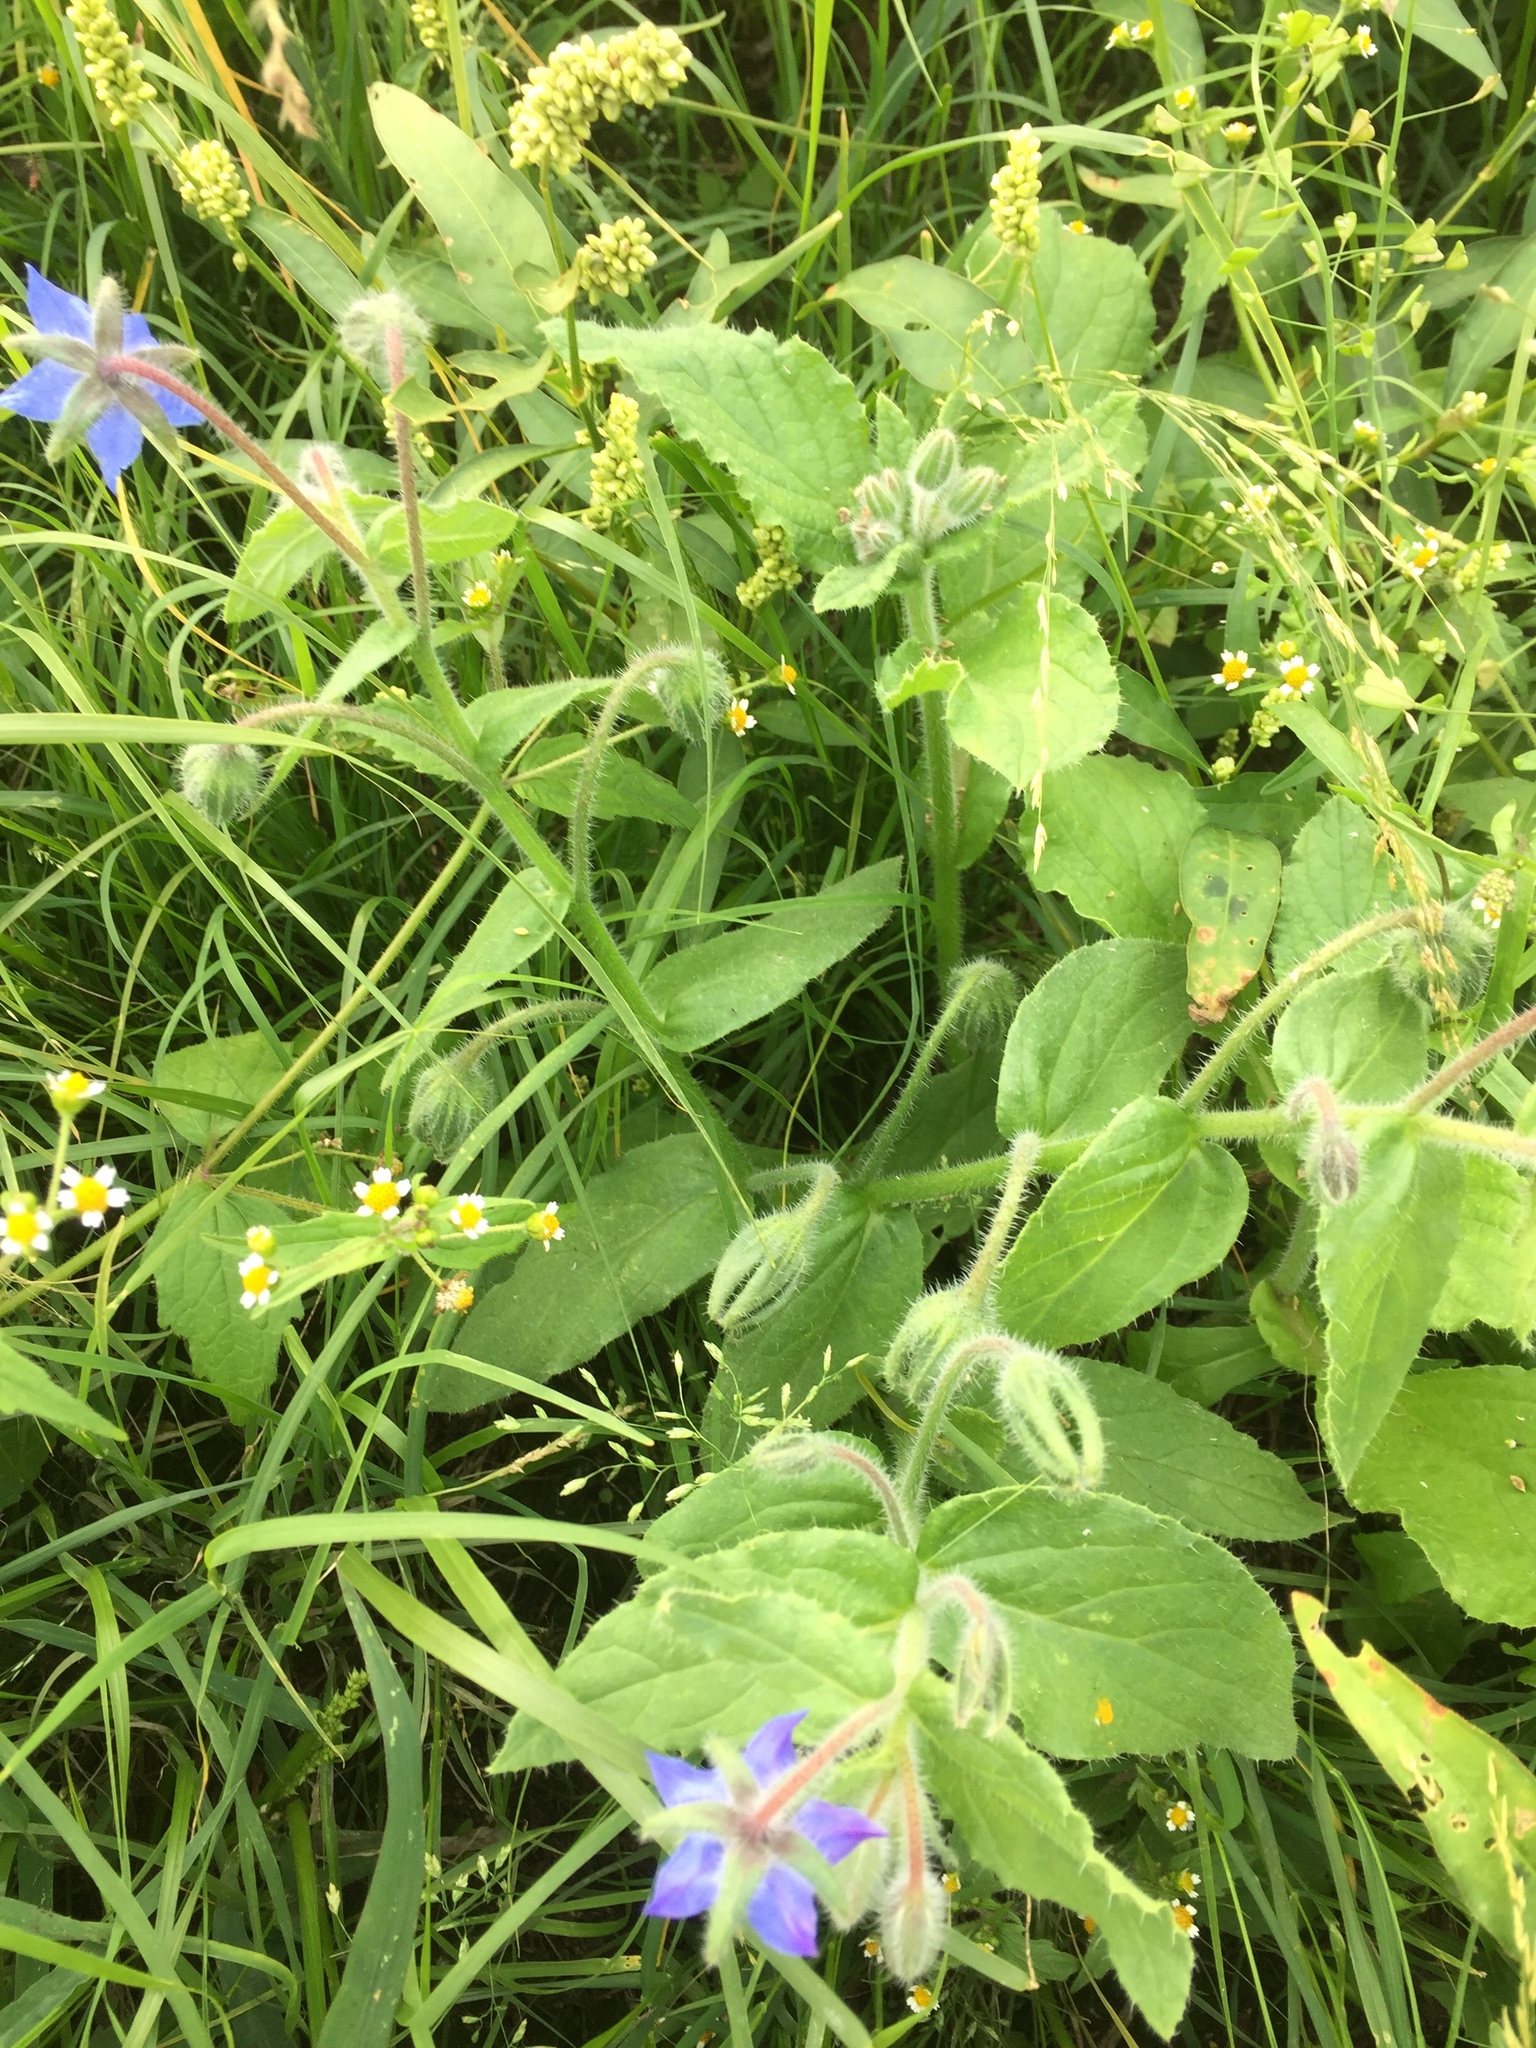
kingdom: Plantae
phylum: Tracheophyta
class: Magnoliopsida
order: Boraginales
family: Boraginaceae
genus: Borago
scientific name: Borago officinalis
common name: Borage
